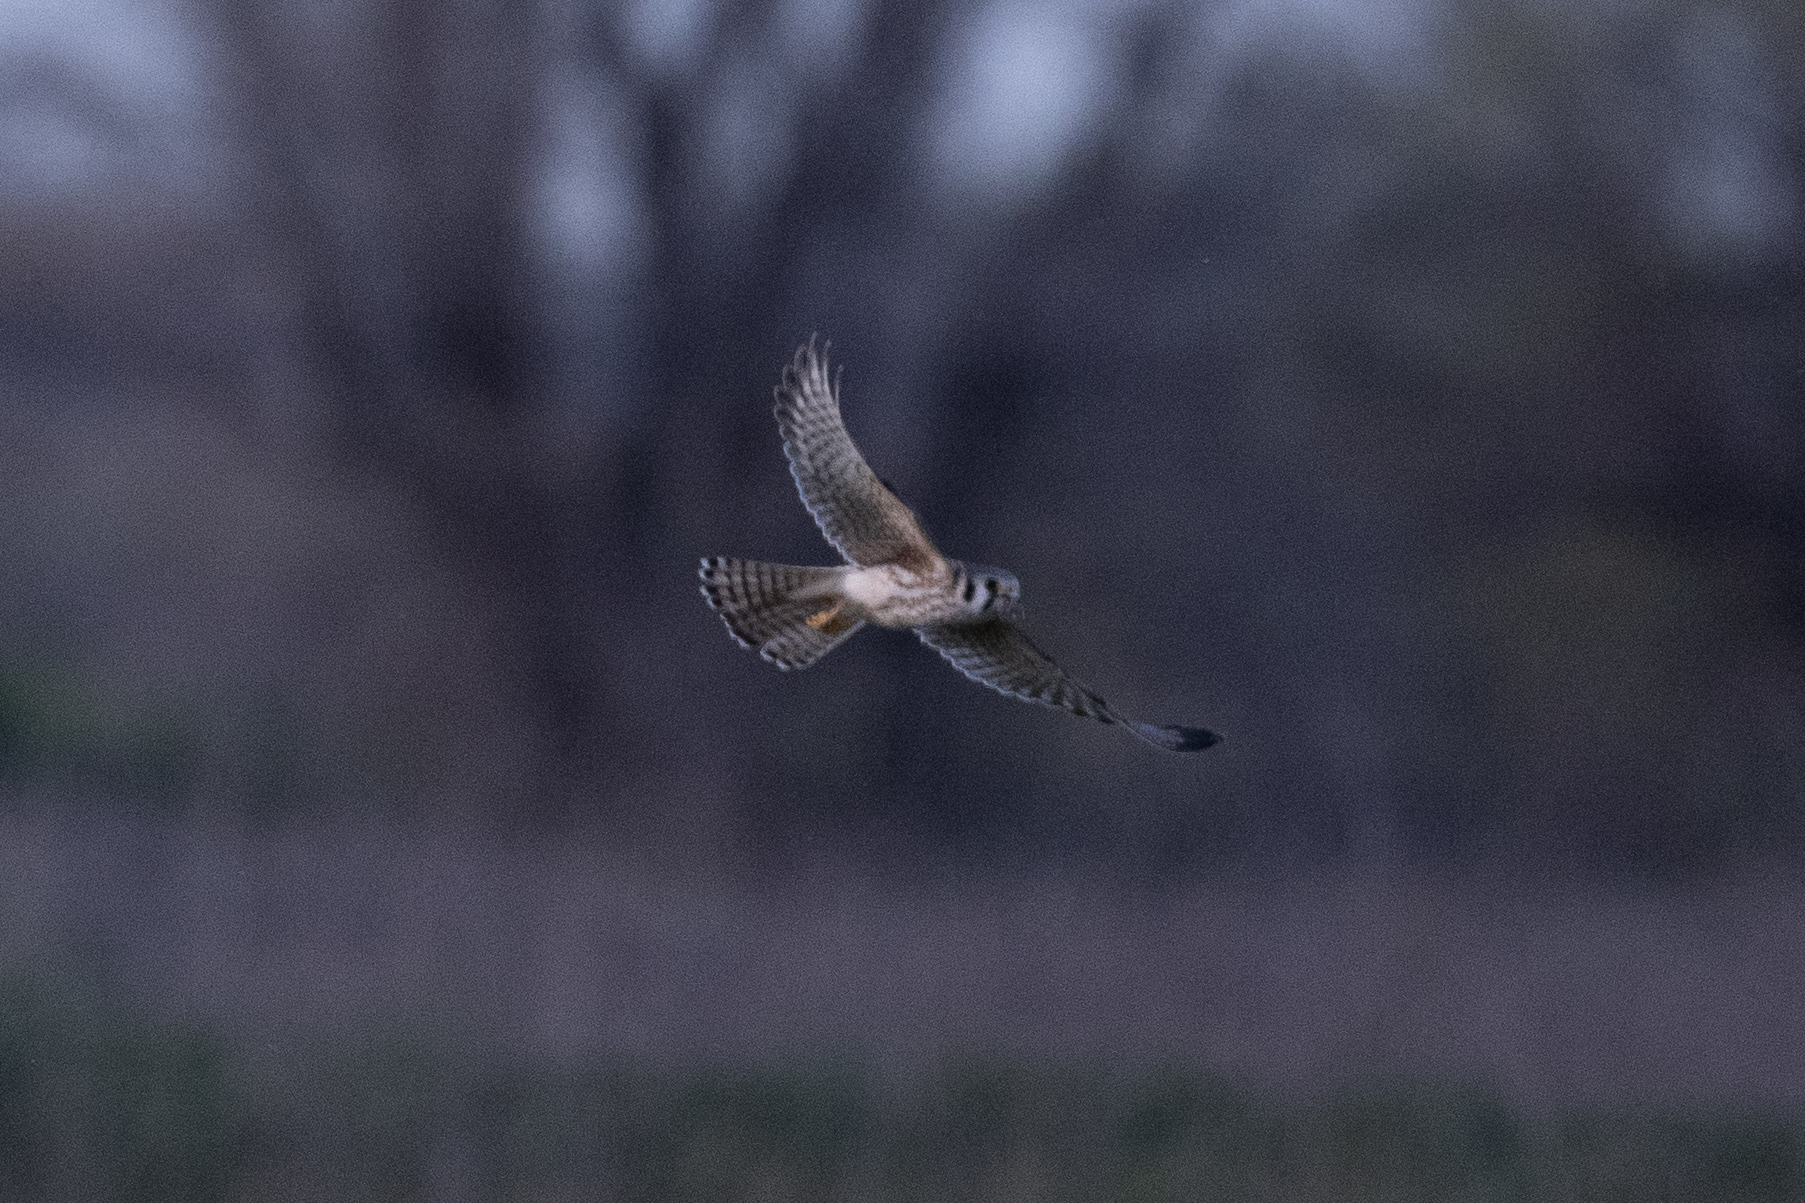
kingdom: Animalia
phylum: Chordata
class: Aves
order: Falconiformes
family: Falconidae
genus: Falco
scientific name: Falco sparverius
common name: American kestrel
